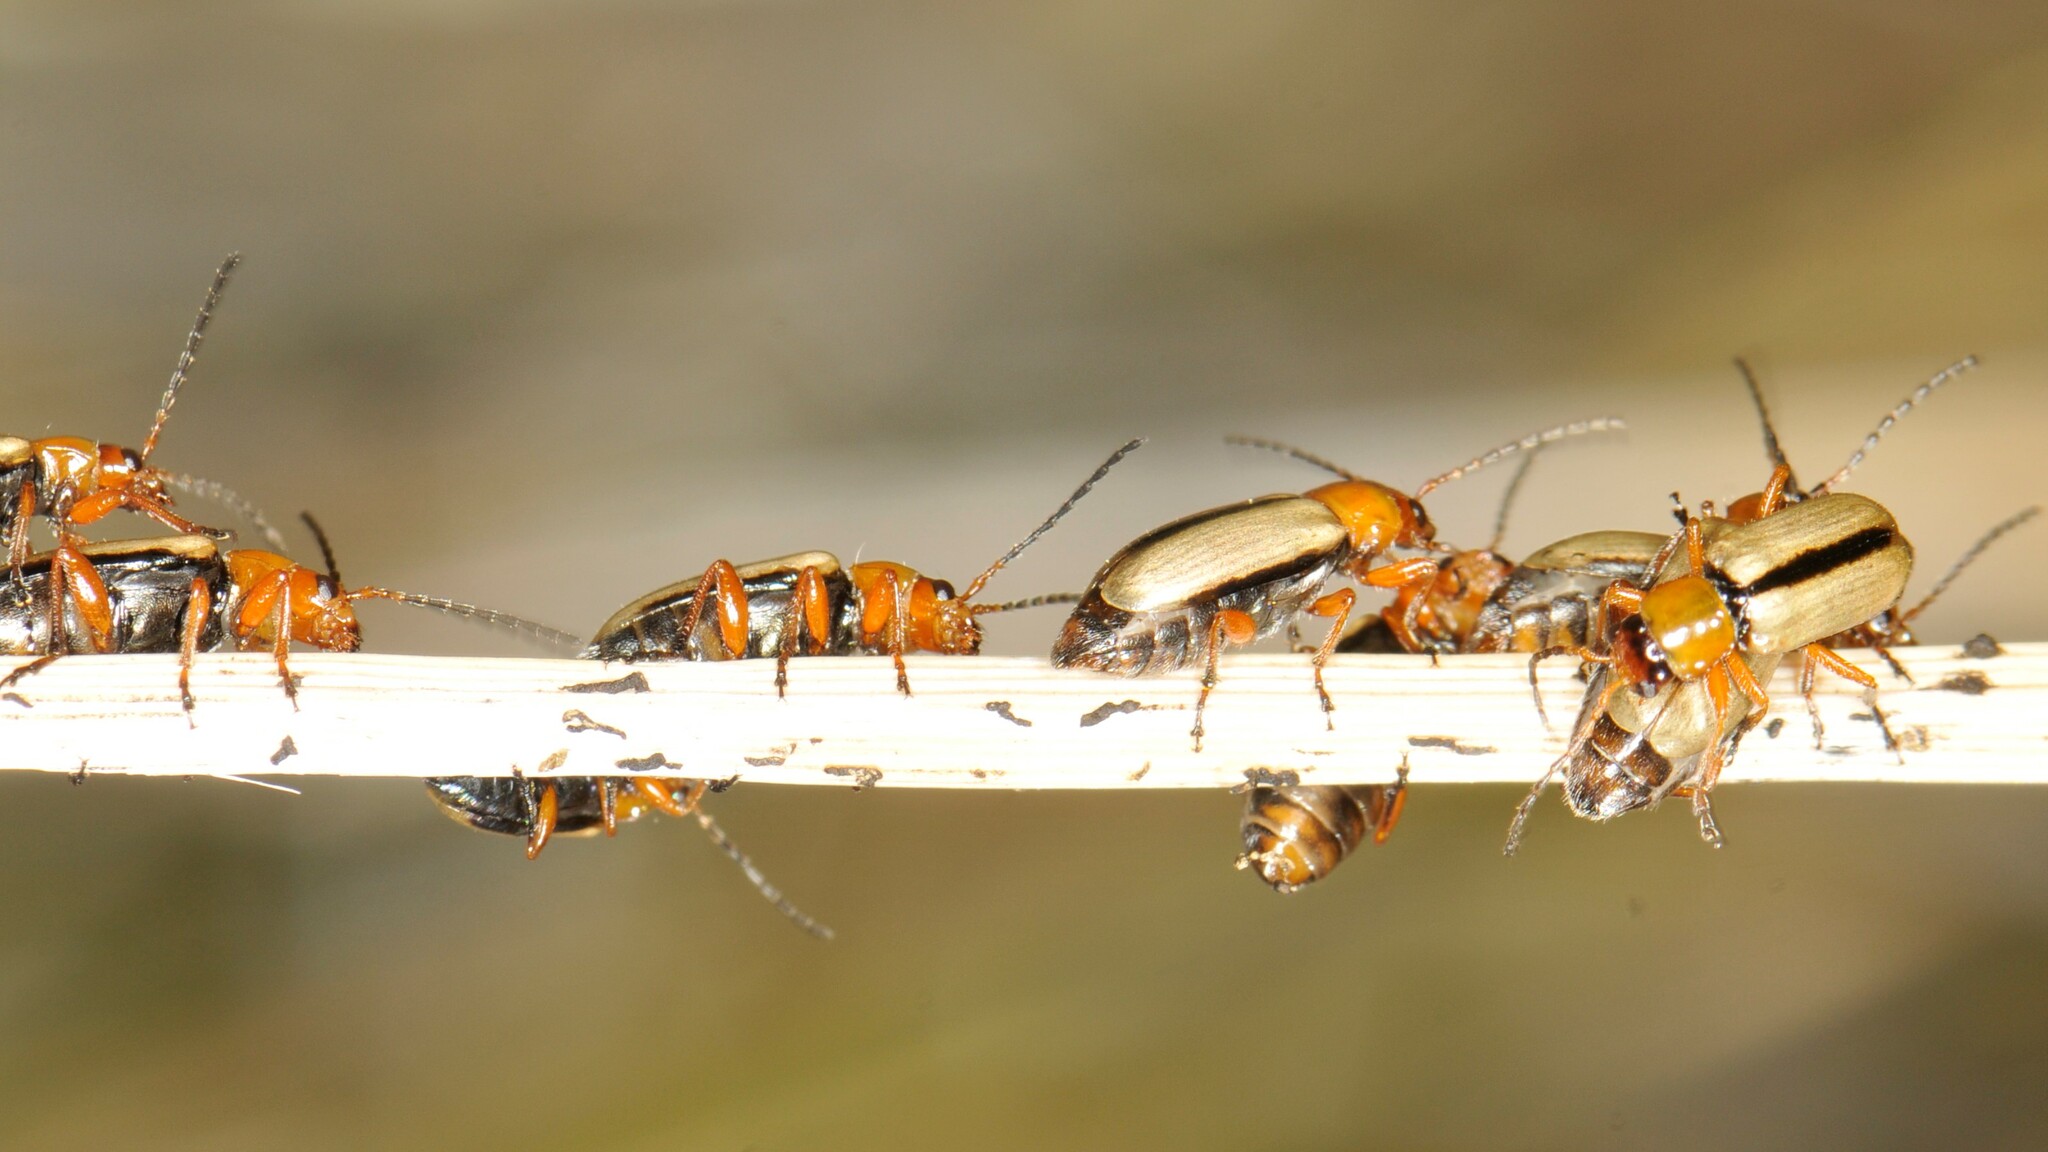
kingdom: Animalia
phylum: Arthropoda
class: Insecta
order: Coleoptera
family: Chrysomelidae
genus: Triarius
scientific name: Triarius lividus
